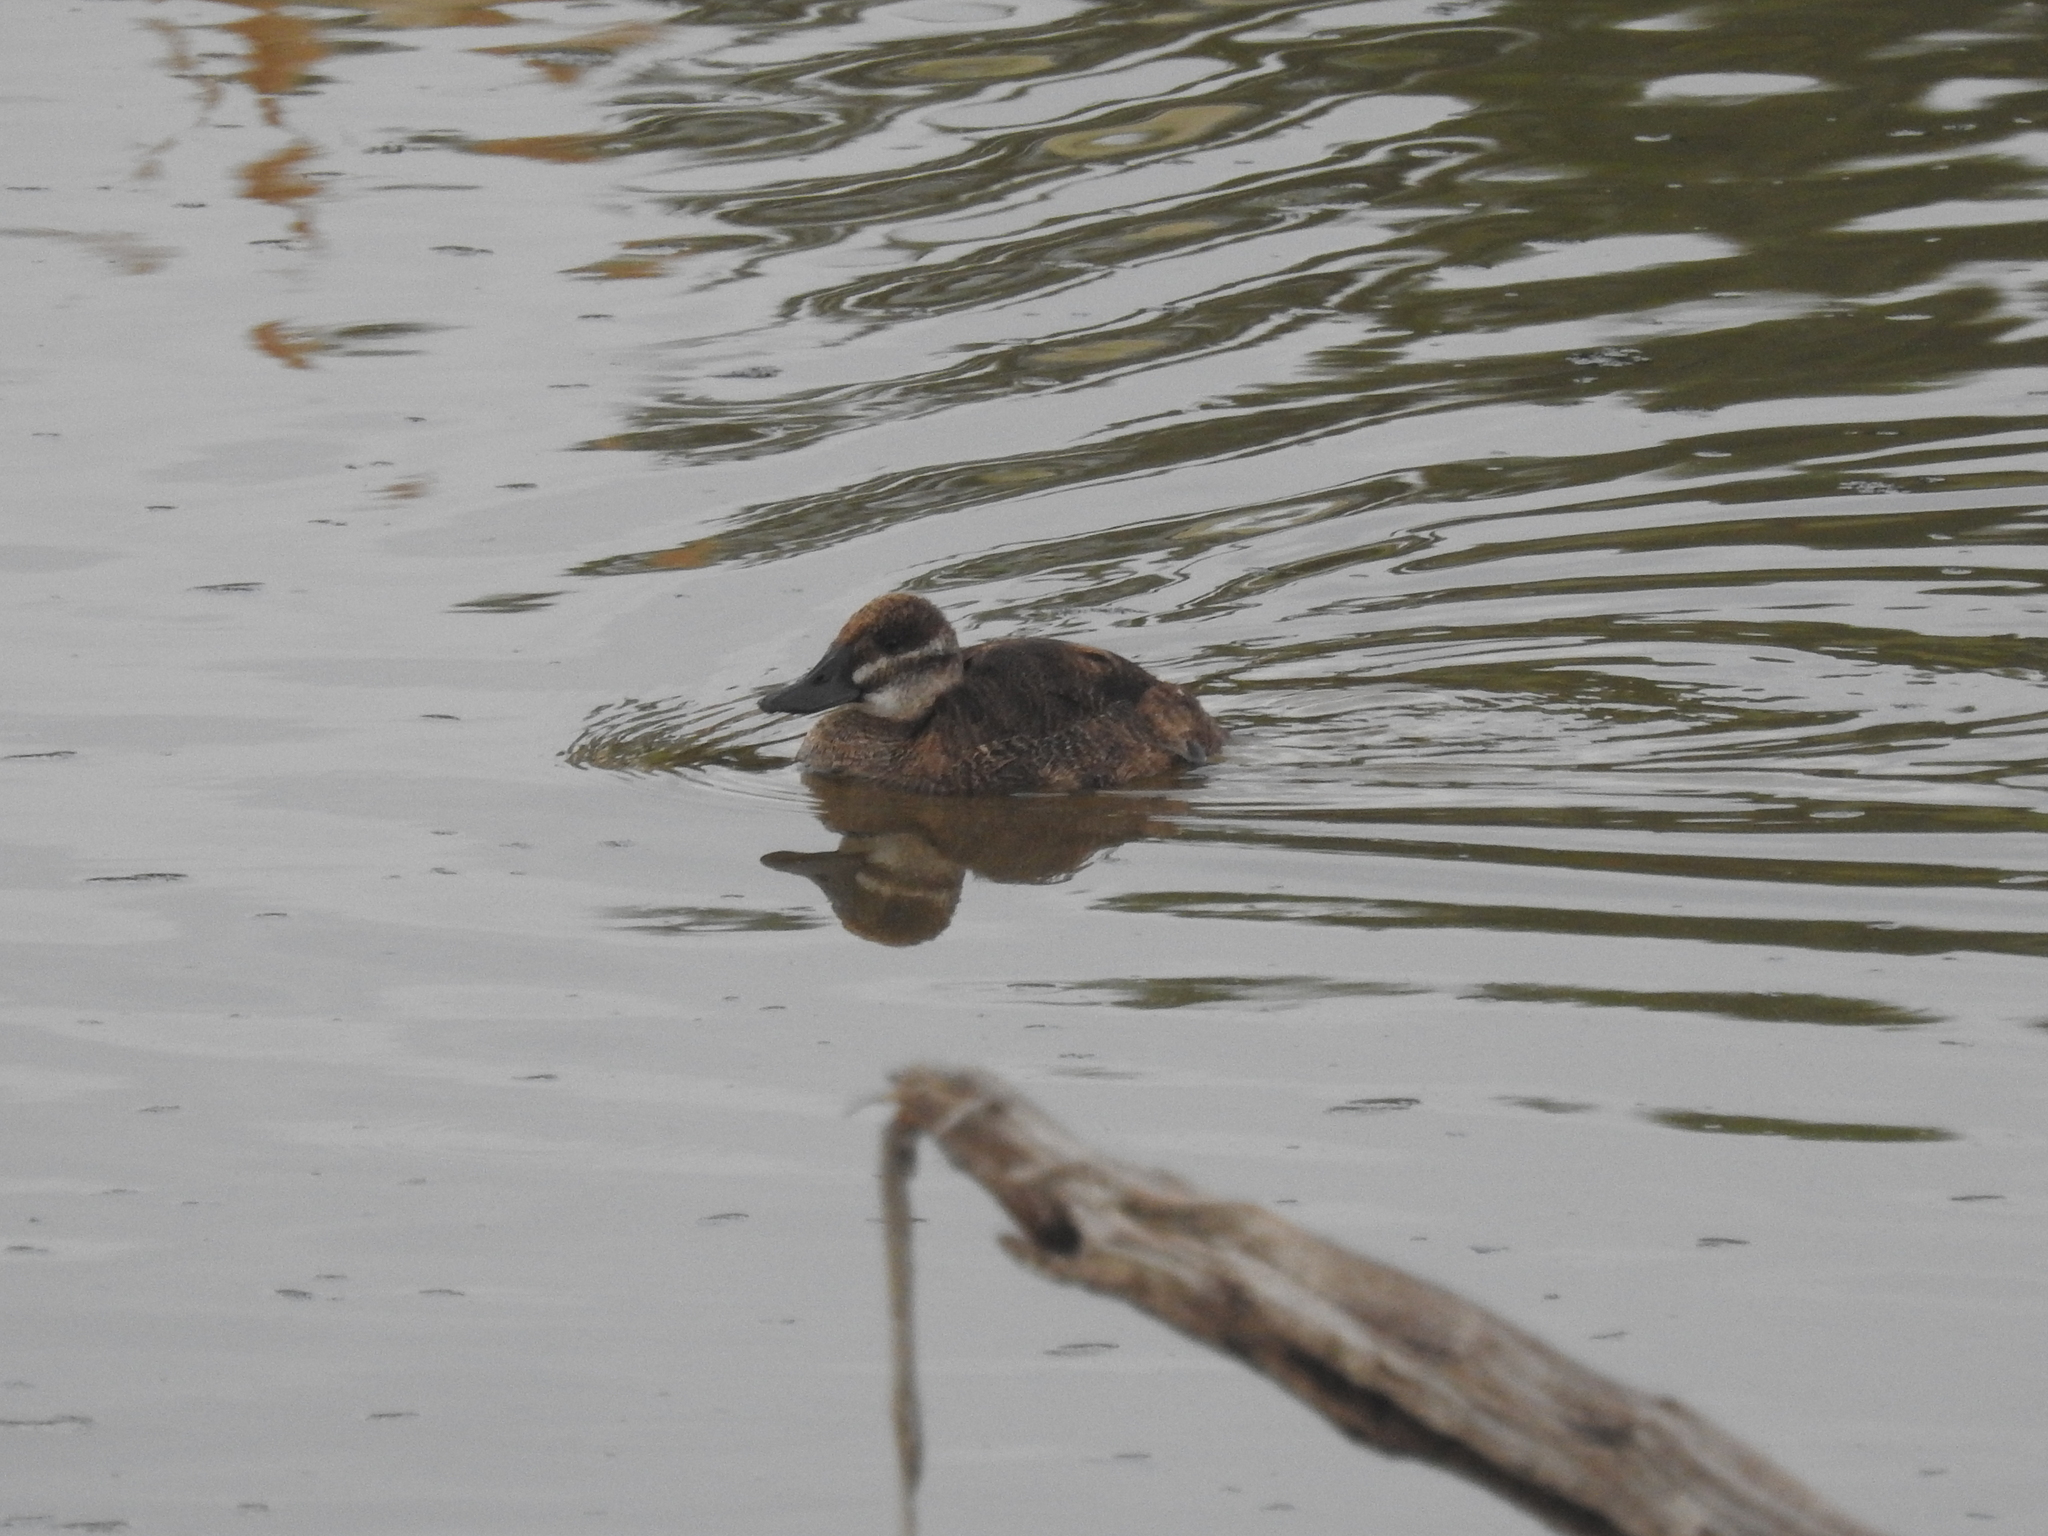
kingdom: Animalia
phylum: Chordata
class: Aves
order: Anseriformes
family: Anatidae
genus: Oxyura
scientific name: Oxyura vittata
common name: Lake duck
